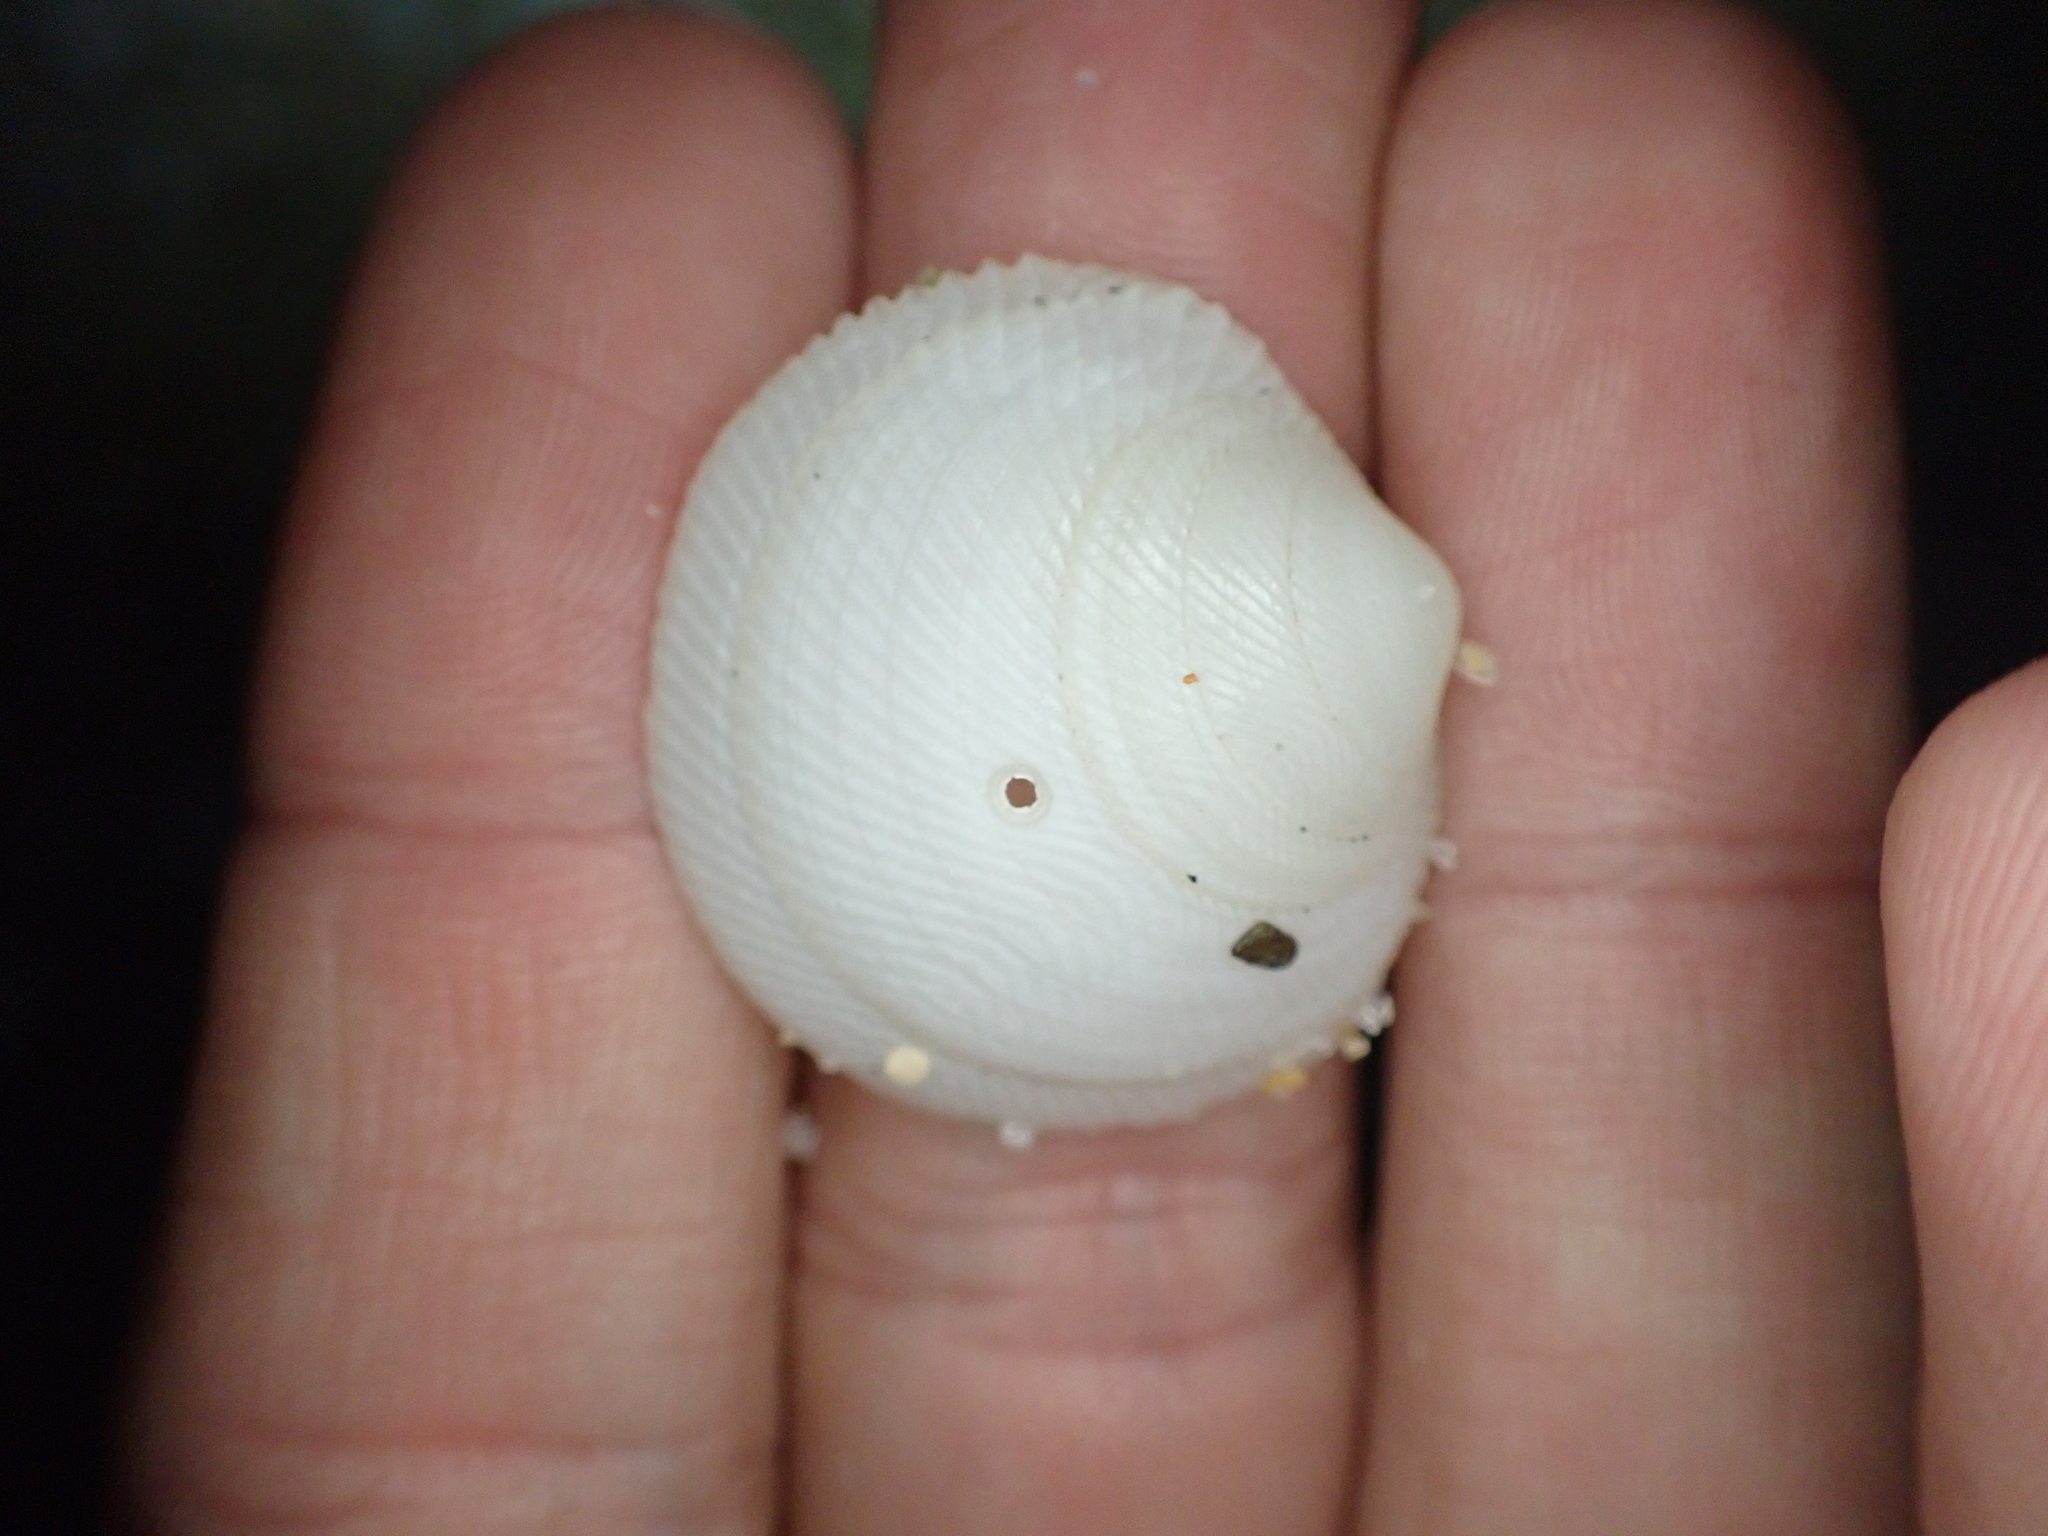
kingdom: Animalia
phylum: Mollusca
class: Bivalvia
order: Lucinida
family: Lucinidae
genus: Divaricella
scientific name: Divaricella dentata
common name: Dentate lucine
